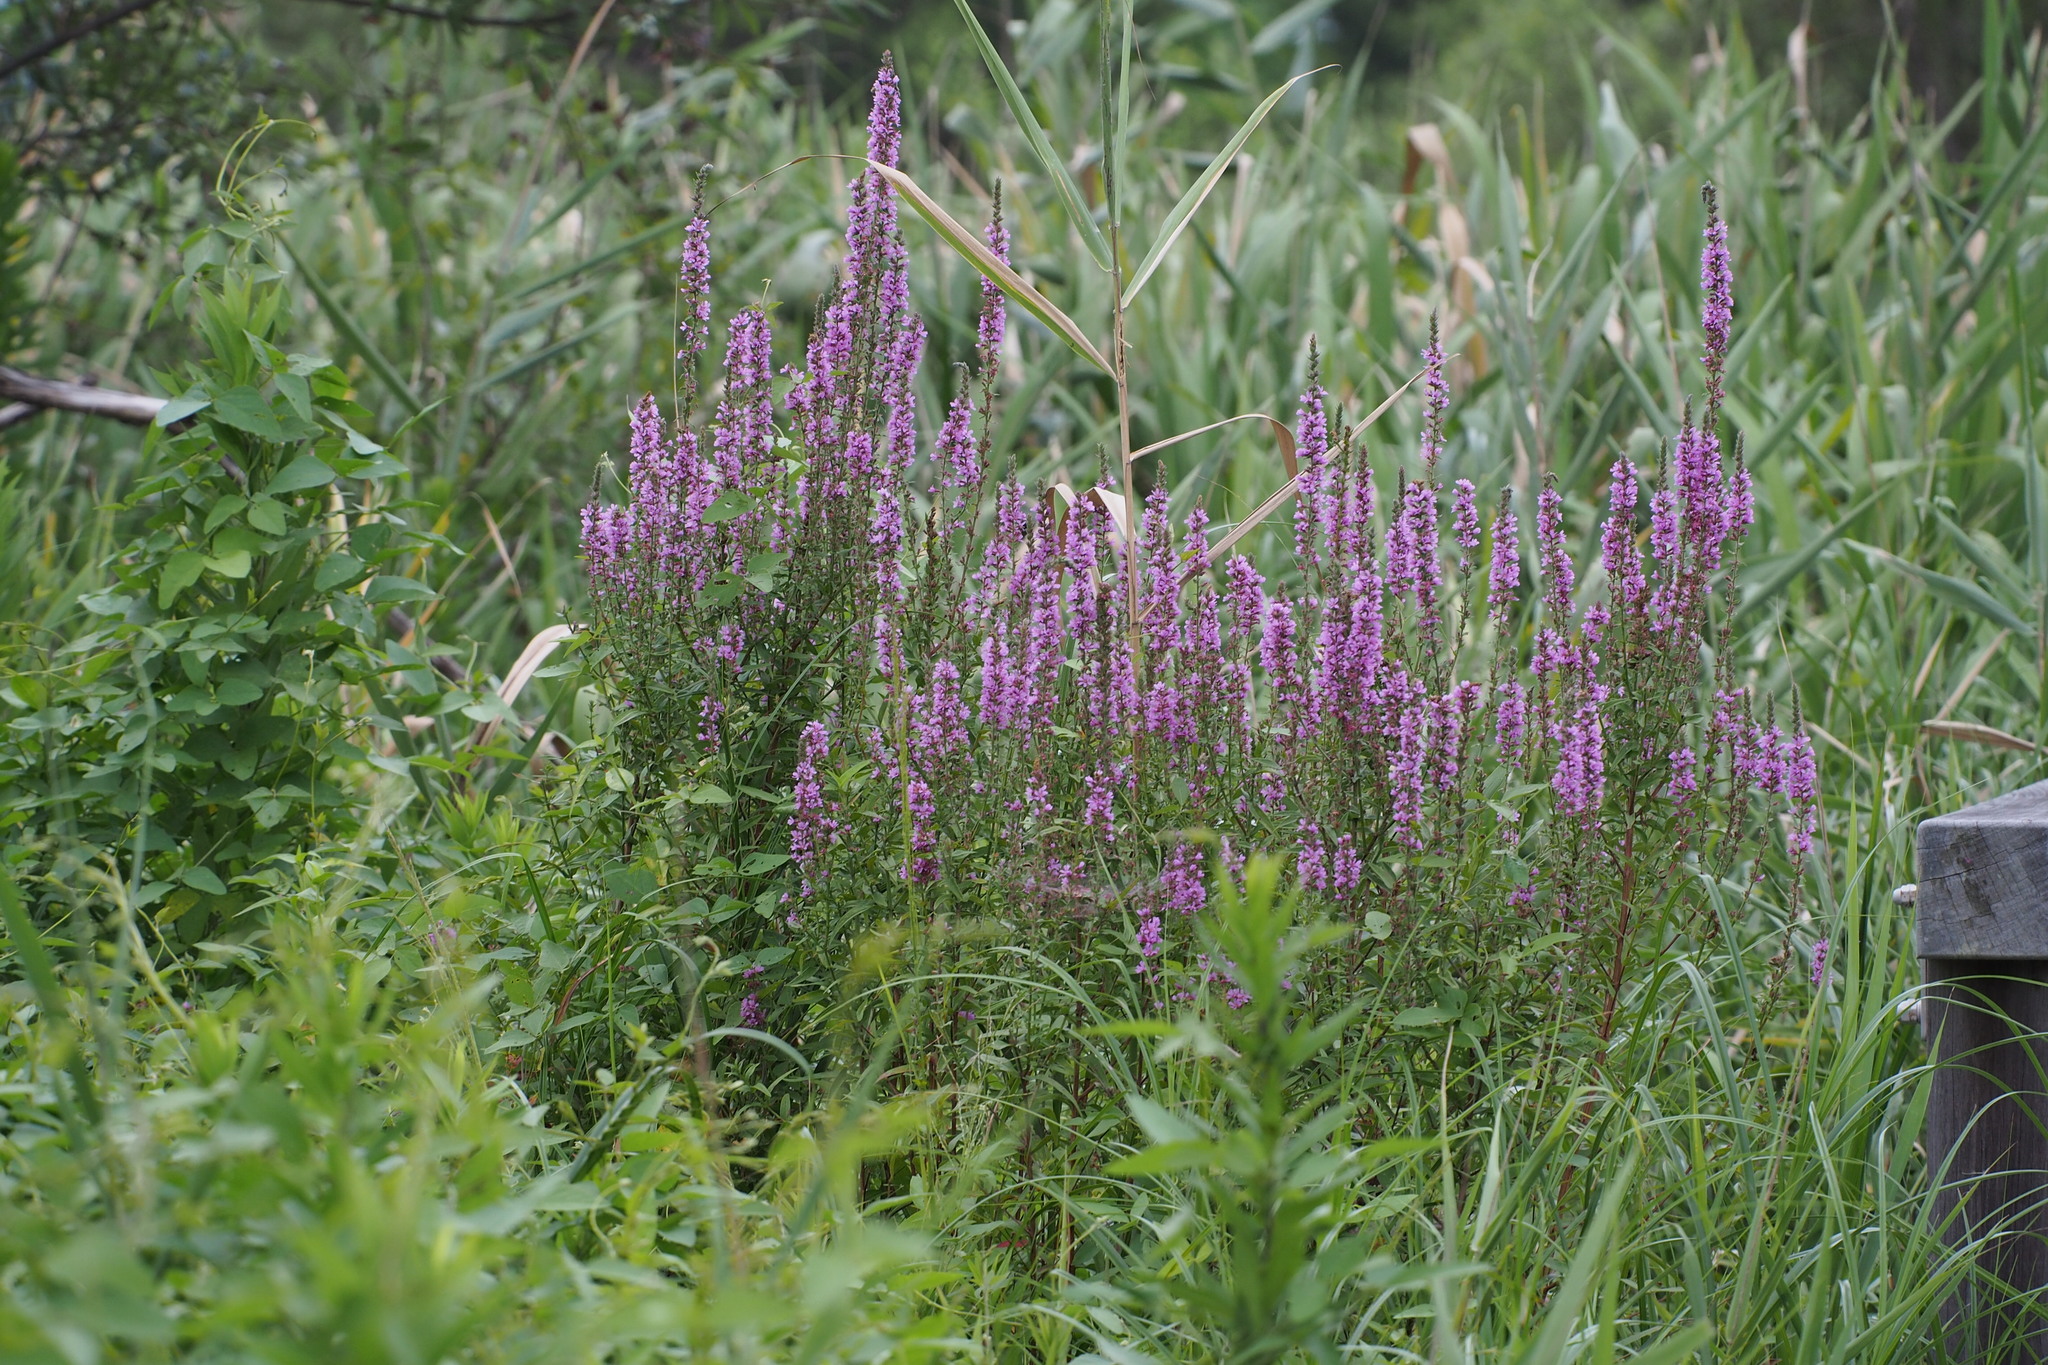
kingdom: Plantae
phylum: Tracheophyta
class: Magnoliopsida
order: Myrtales
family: Lythraceae
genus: Lythrum
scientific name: Lythrum salicaria
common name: Purple loosestrife
